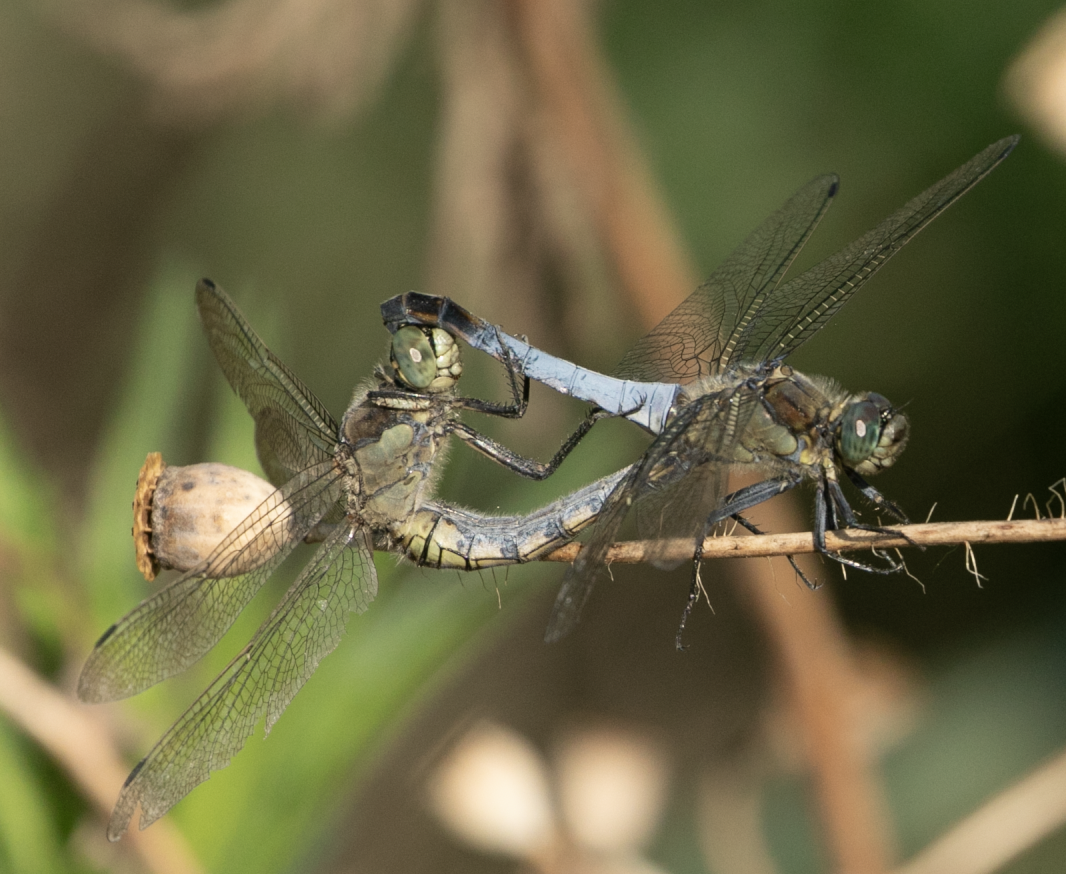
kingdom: Animalia
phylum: Arthropoda
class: Insecta
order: Odonata
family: Libellulidae
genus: Orthetrum
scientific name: Orthetrum cancellatum
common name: Black-tailed skimmer
